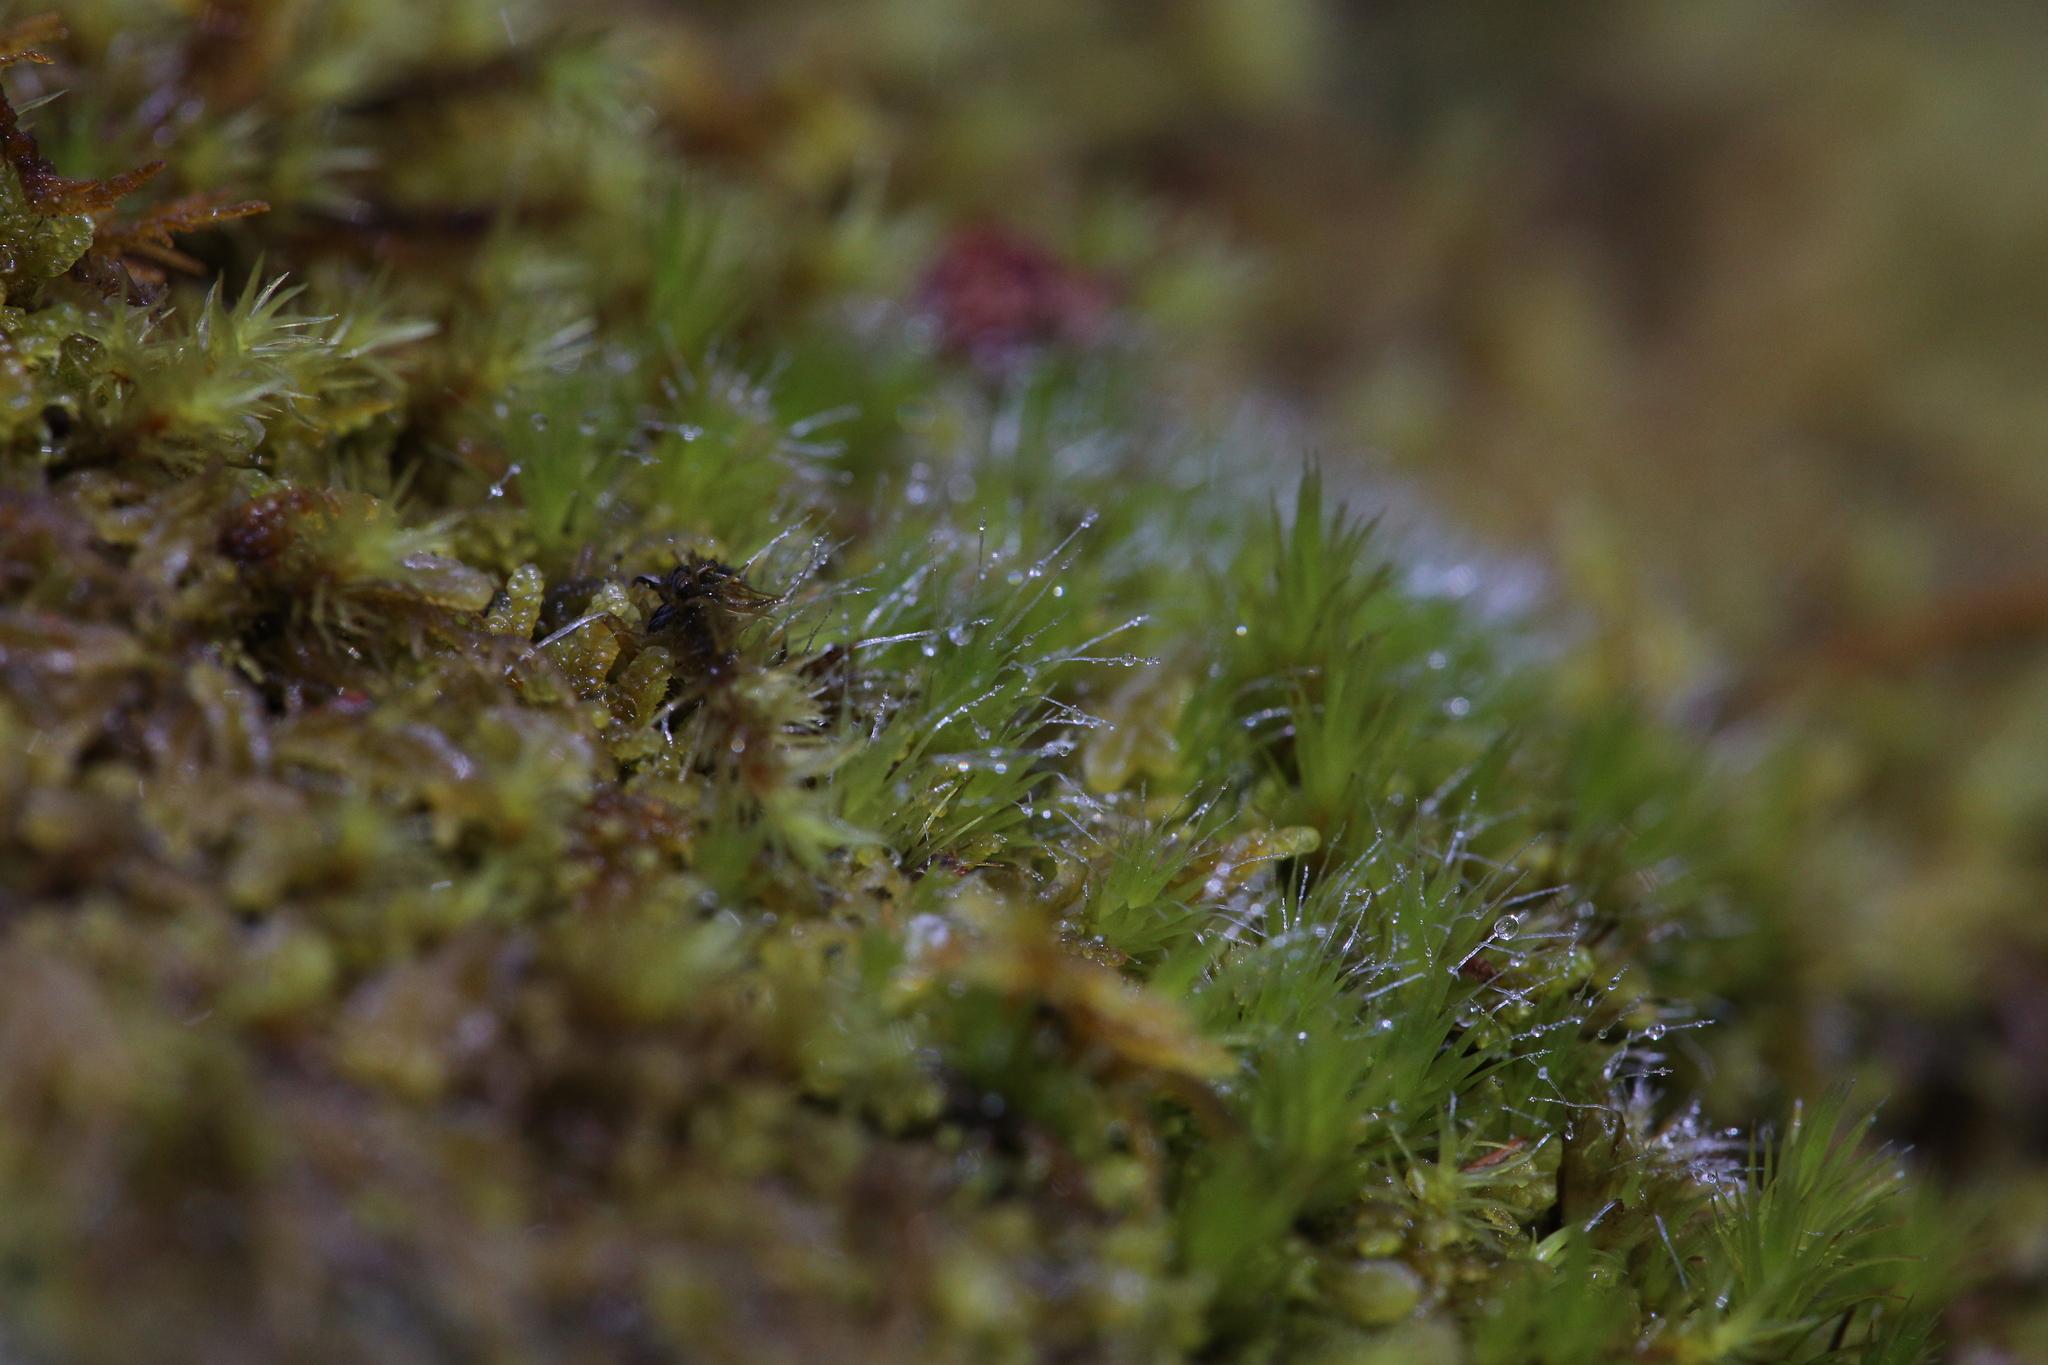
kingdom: Plantae
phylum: Bryophyta
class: Bryopsida
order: Dicranales
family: Leucobryaceae
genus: Campylopus
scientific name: Campylopus introflexus
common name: Heath star moss
